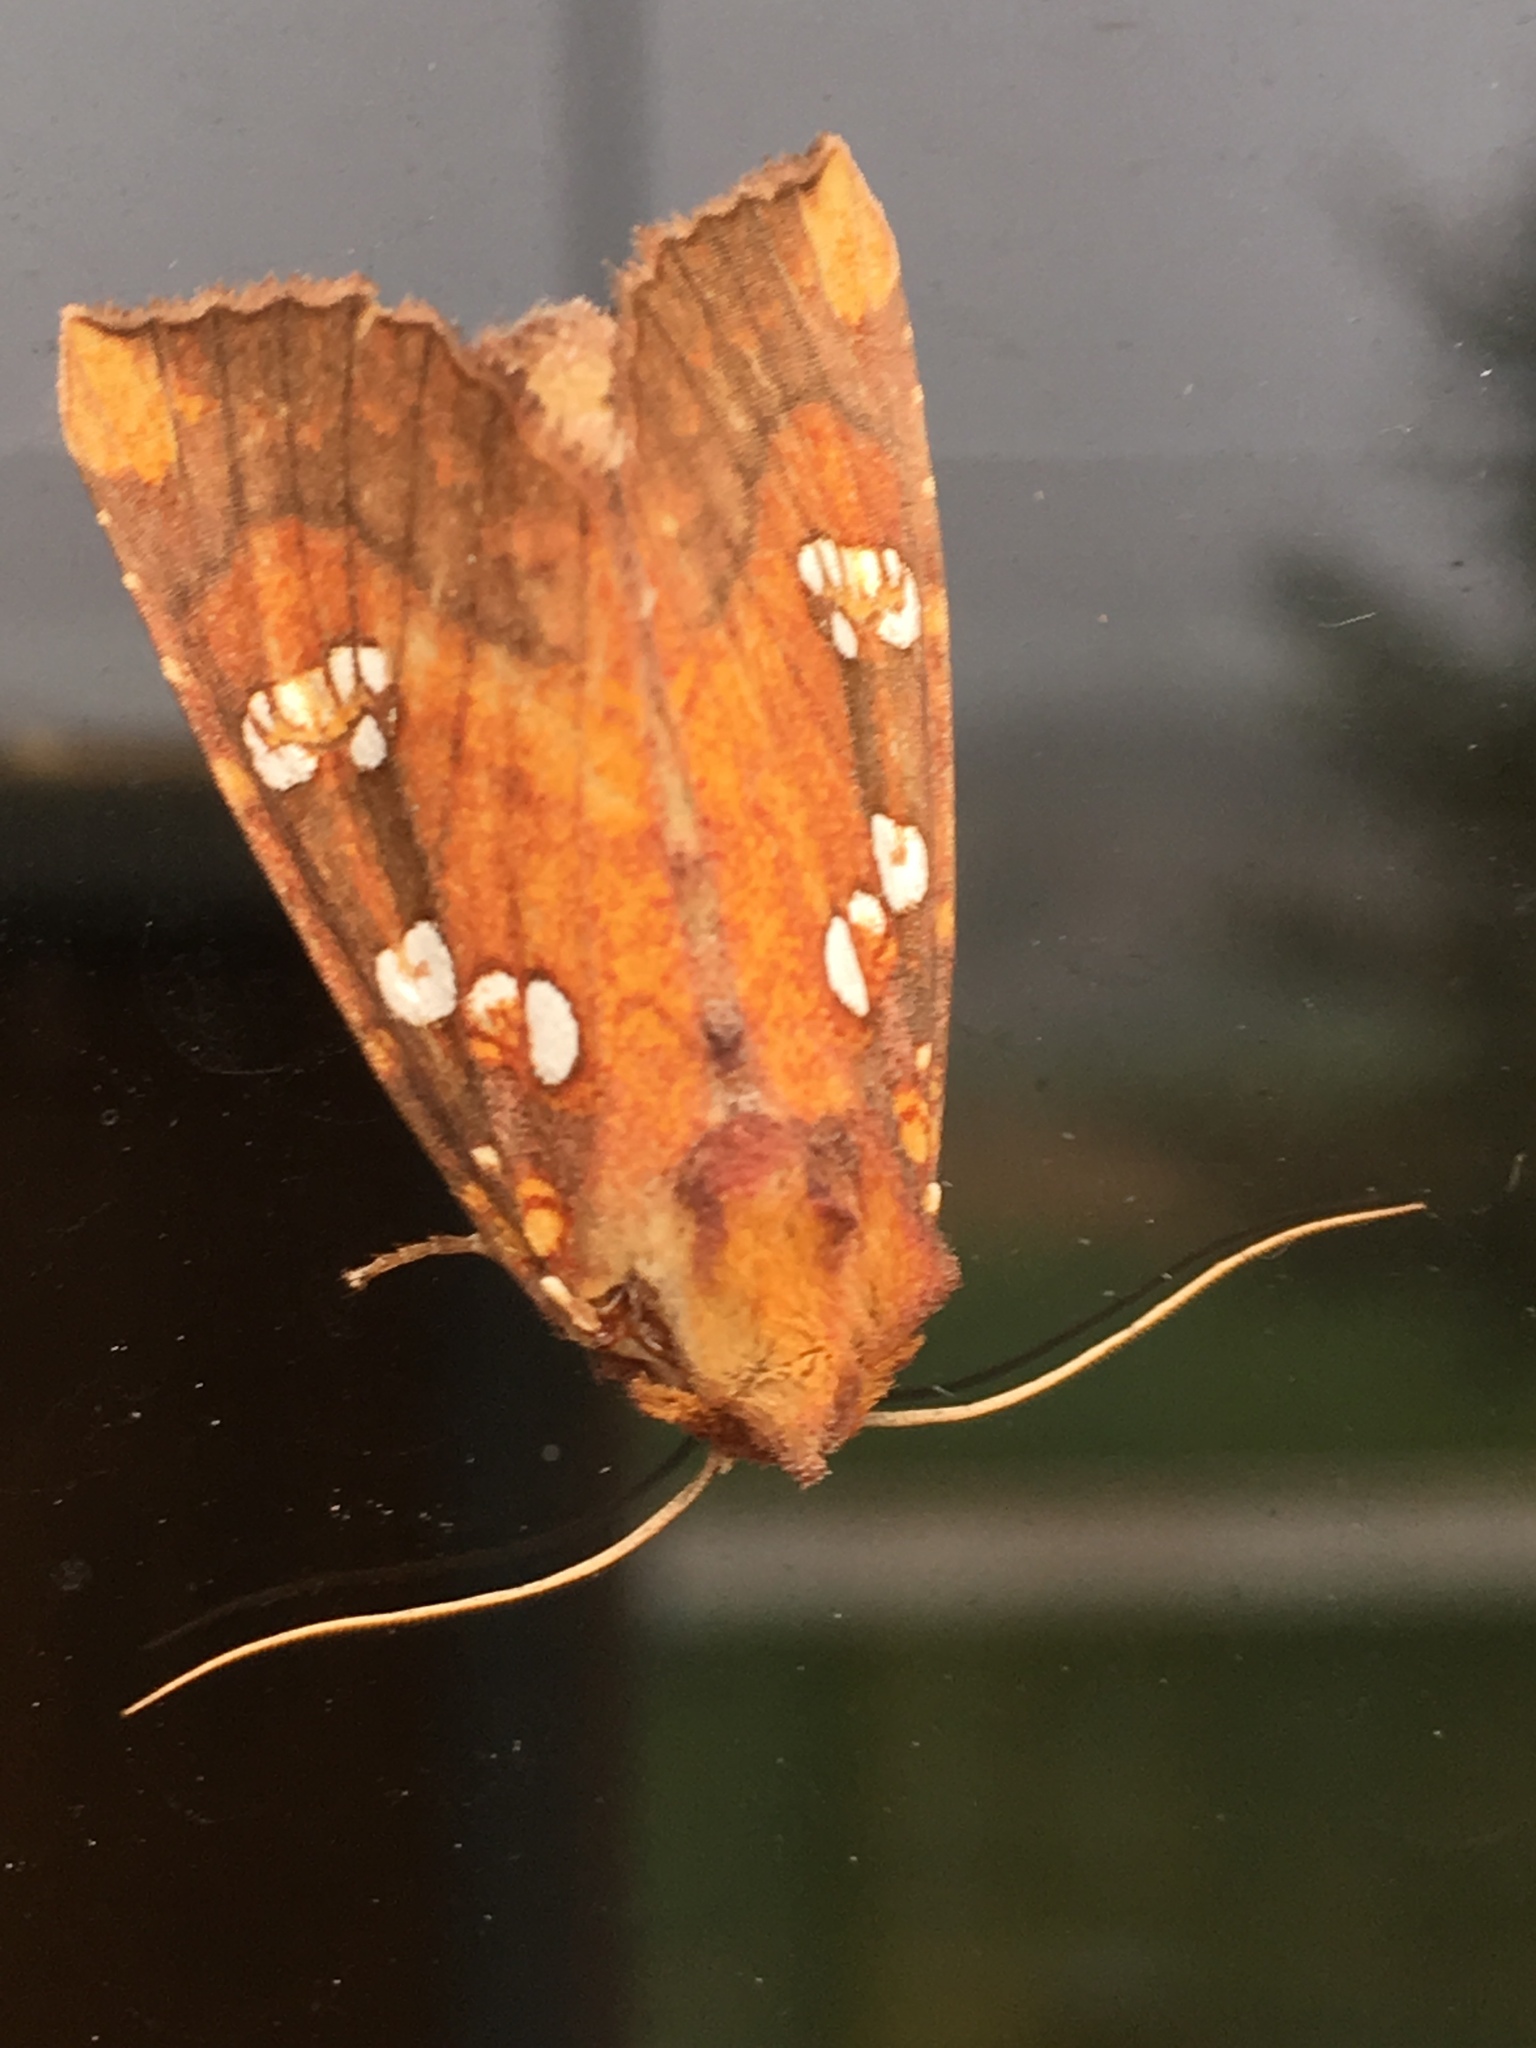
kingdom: Animalia
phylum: Arthropoda
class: Insecta
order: Lepidoptera
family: Noctuidae
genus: Papaipema
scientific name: Papaipema baptisiae
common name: Wild indigo borer moth
